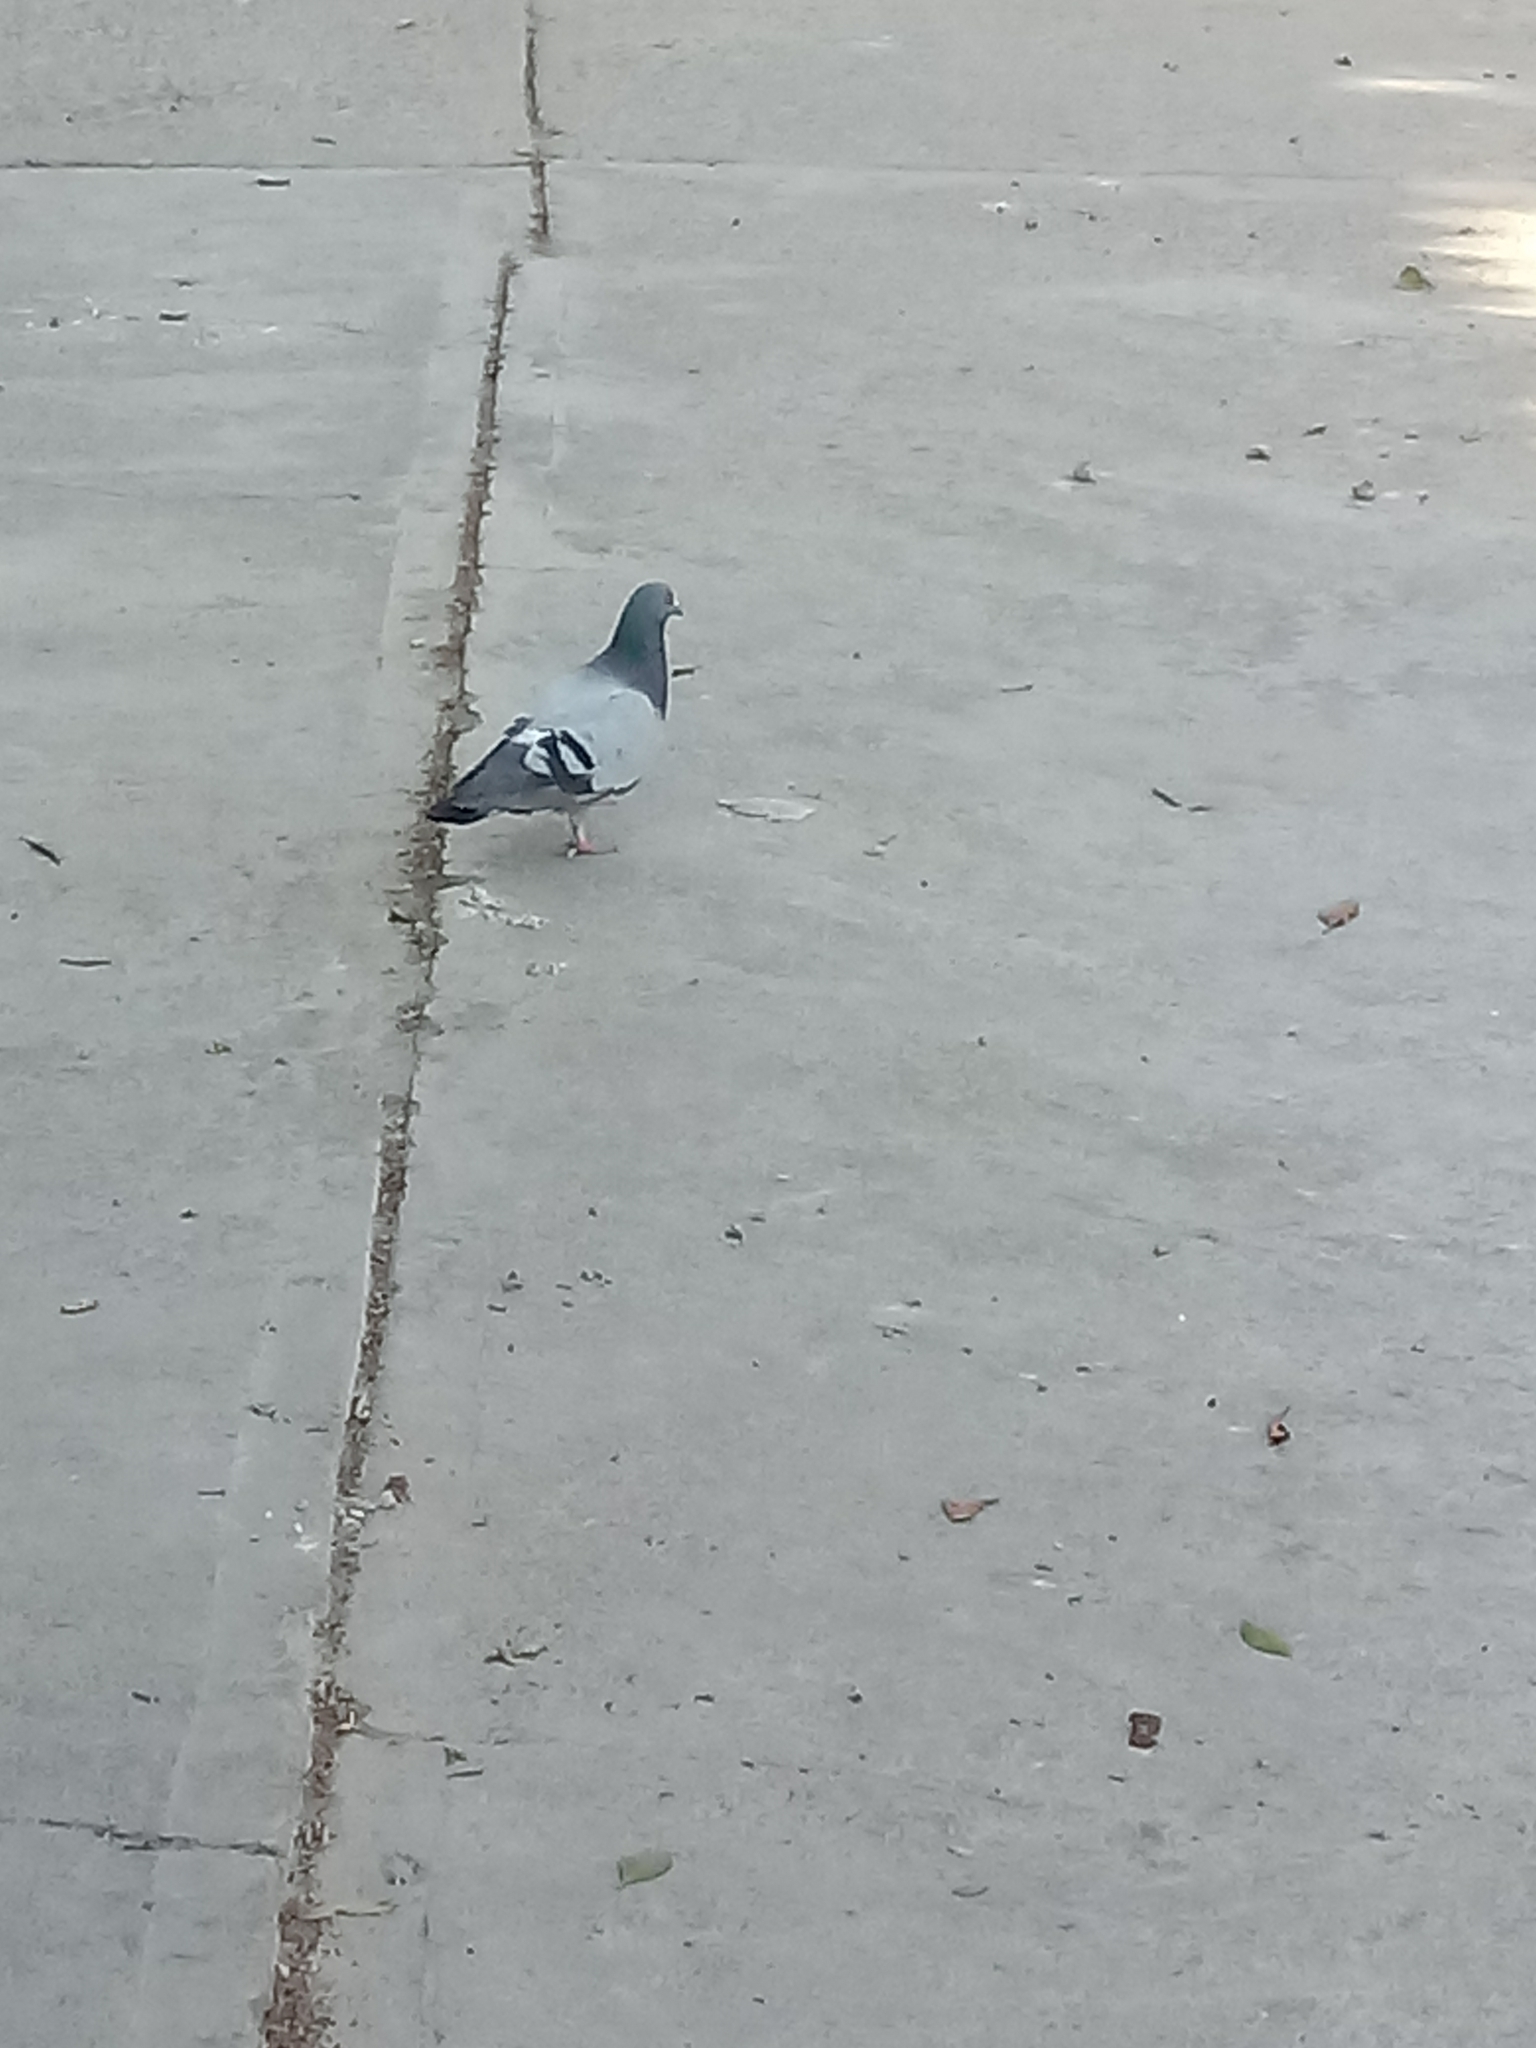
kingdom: Animalia
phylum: Chordata
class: Aves
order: Columbiformes
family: Columbidae
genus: Columba
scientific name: Columba livia
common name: Rock pigeon
